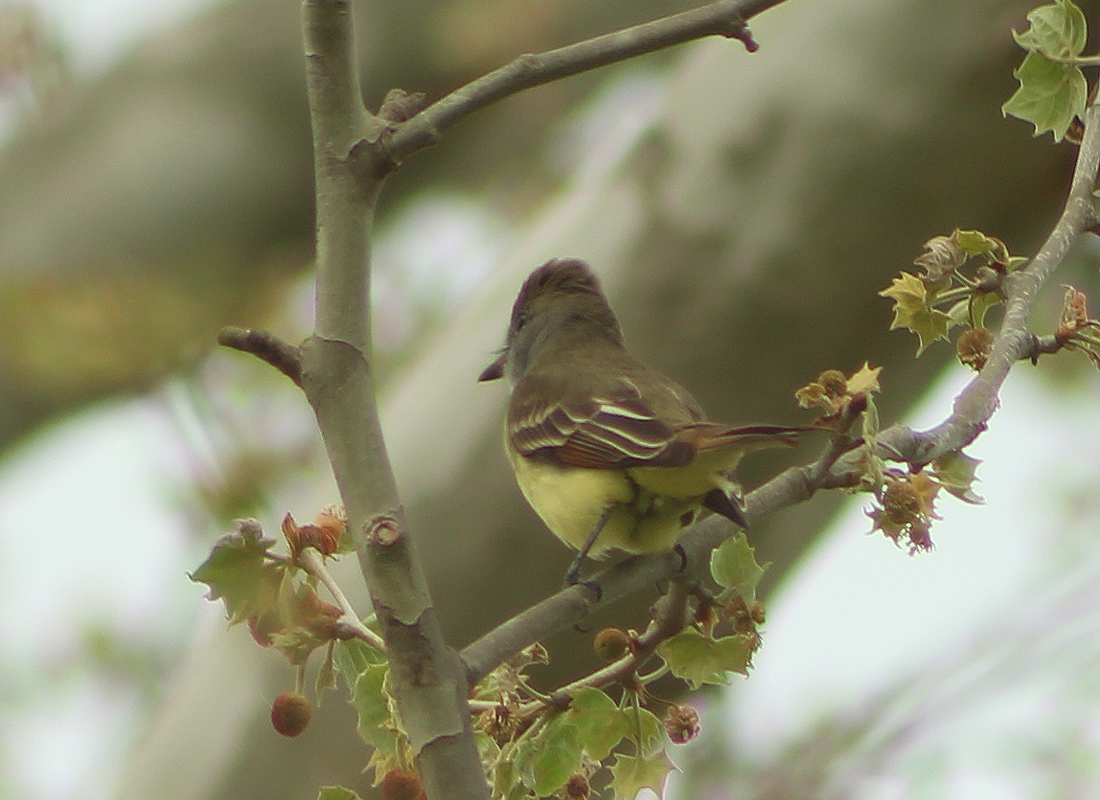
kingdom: Animalia
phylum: Chordata
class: Aves
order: Passeriformes
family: Tyrannidae
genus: Myiarchus
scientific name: Myiarchus crinitus
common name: Great crested flycatcher
